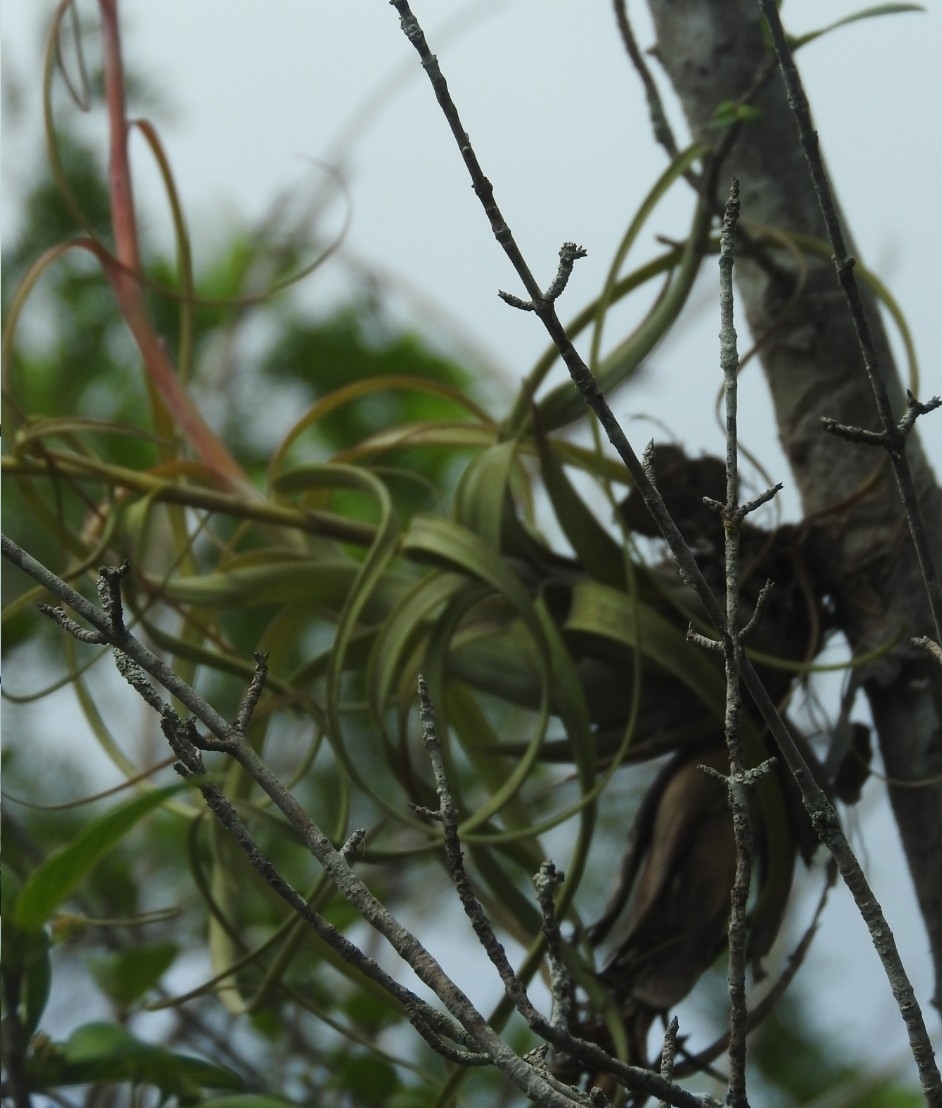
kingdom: Plantae
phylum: Tracheophyta
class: Liliopsida
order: Poales
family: Bromeliaceae
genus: Tillandsia
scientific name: Tillandsia balbisiana
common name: Northern needleleaf
